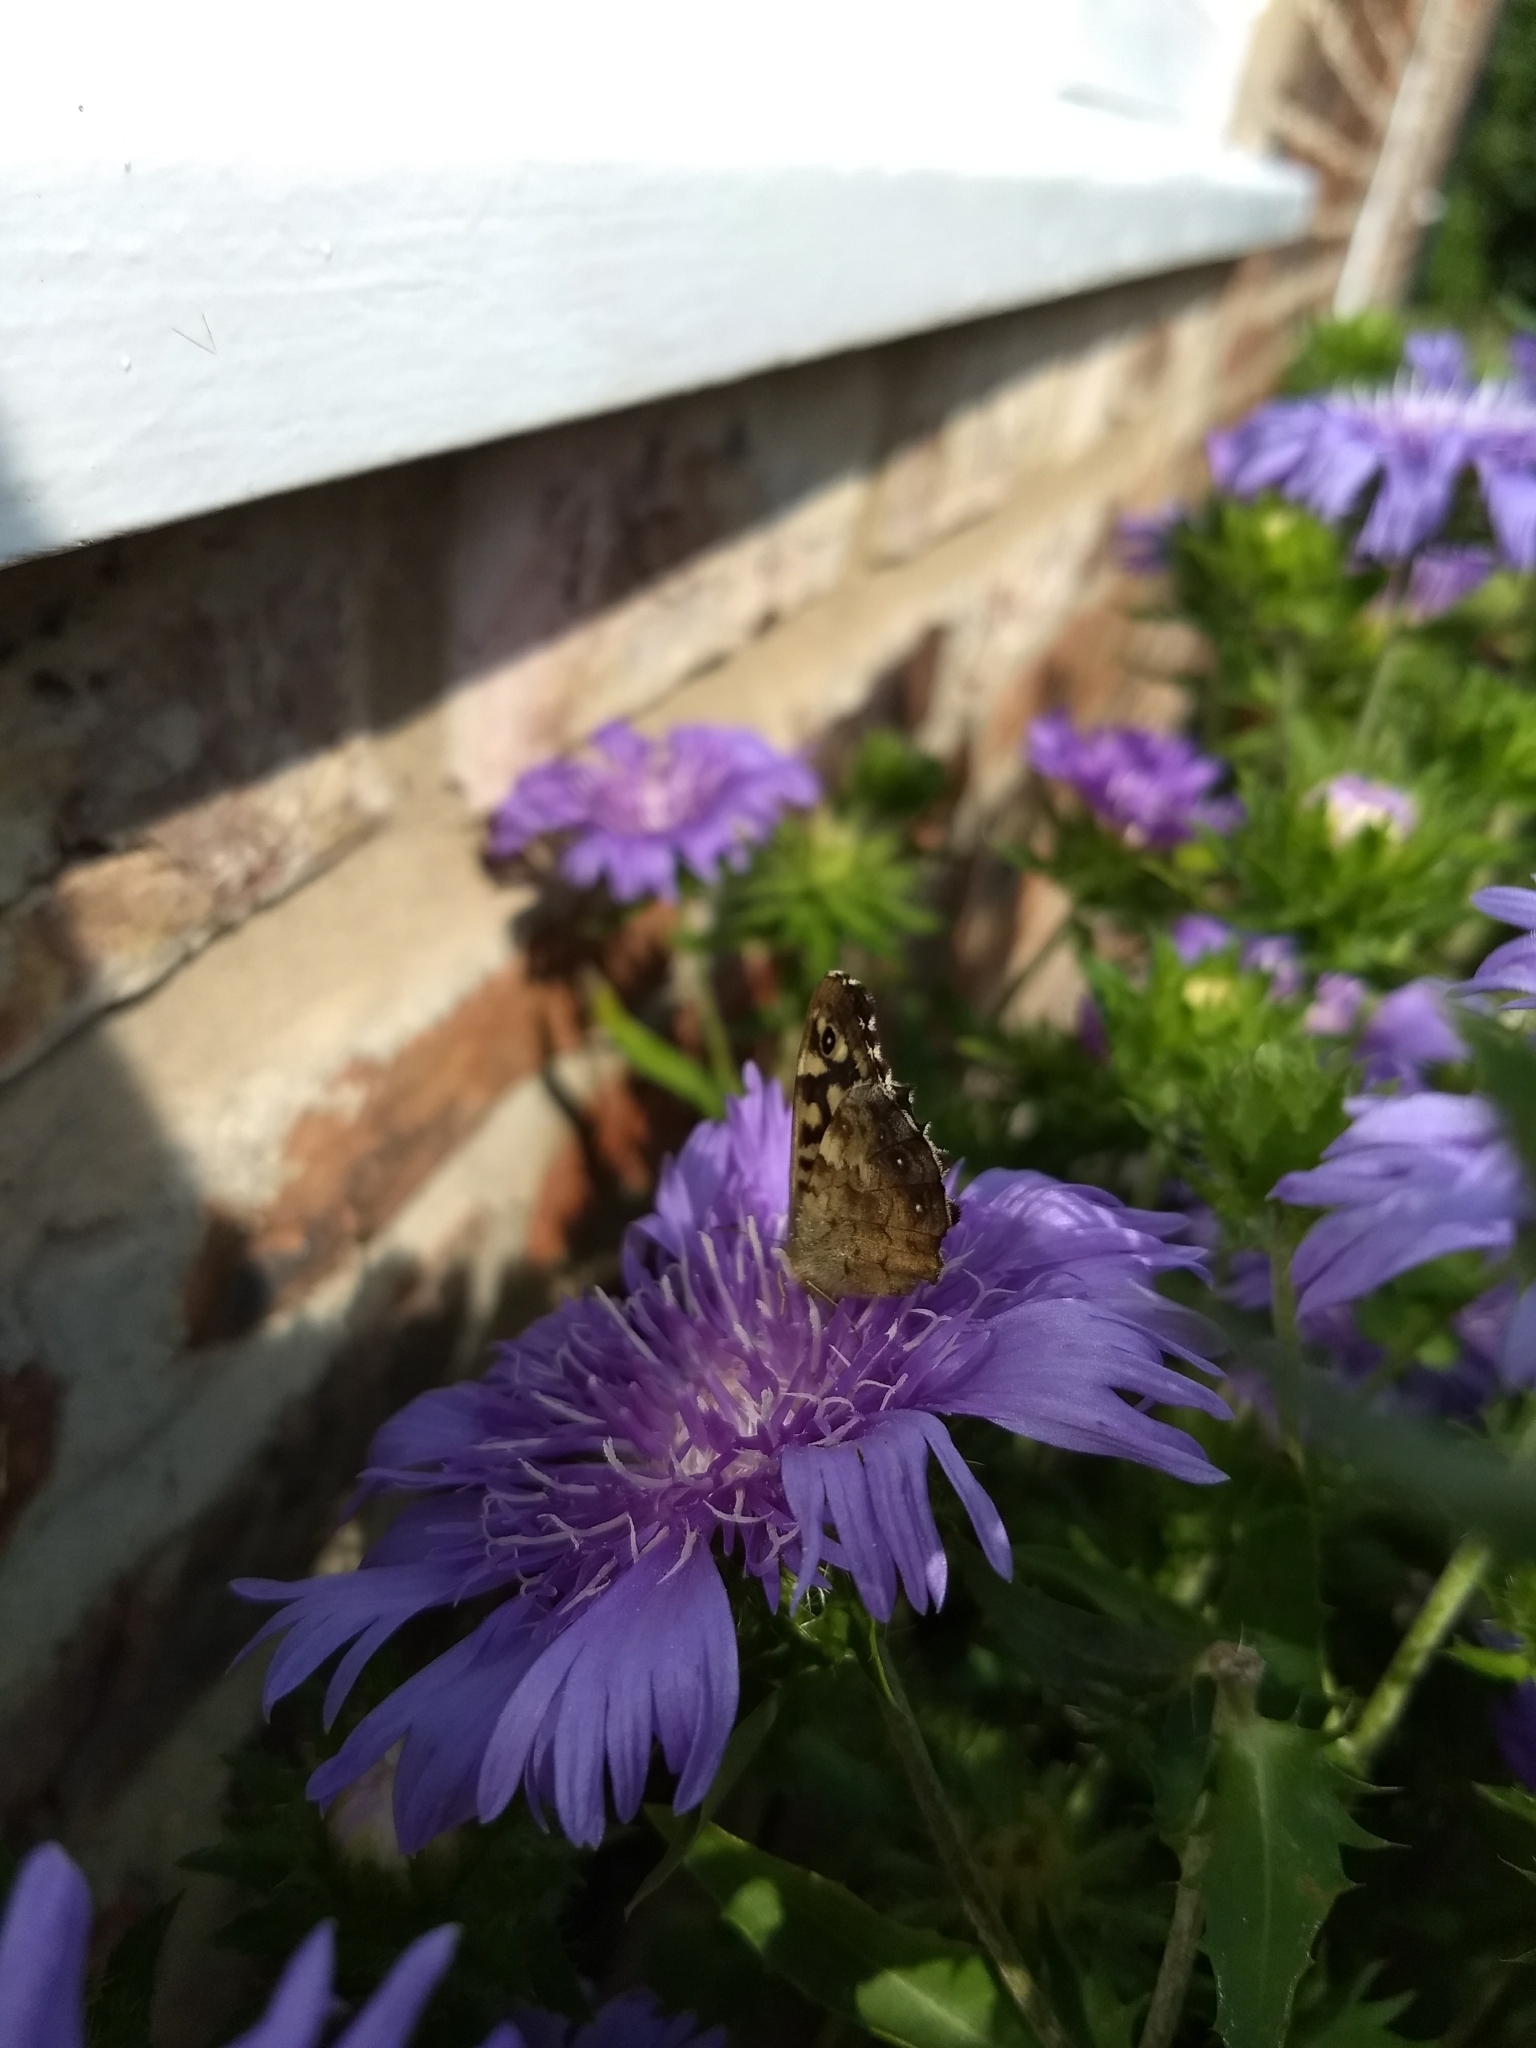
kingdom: Animalia
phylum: Arthropoda
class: Insecta
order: Lepidoptera
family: Nymphalidae
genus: Pararge
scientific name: Pararge aegeria
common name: Speckled wood
